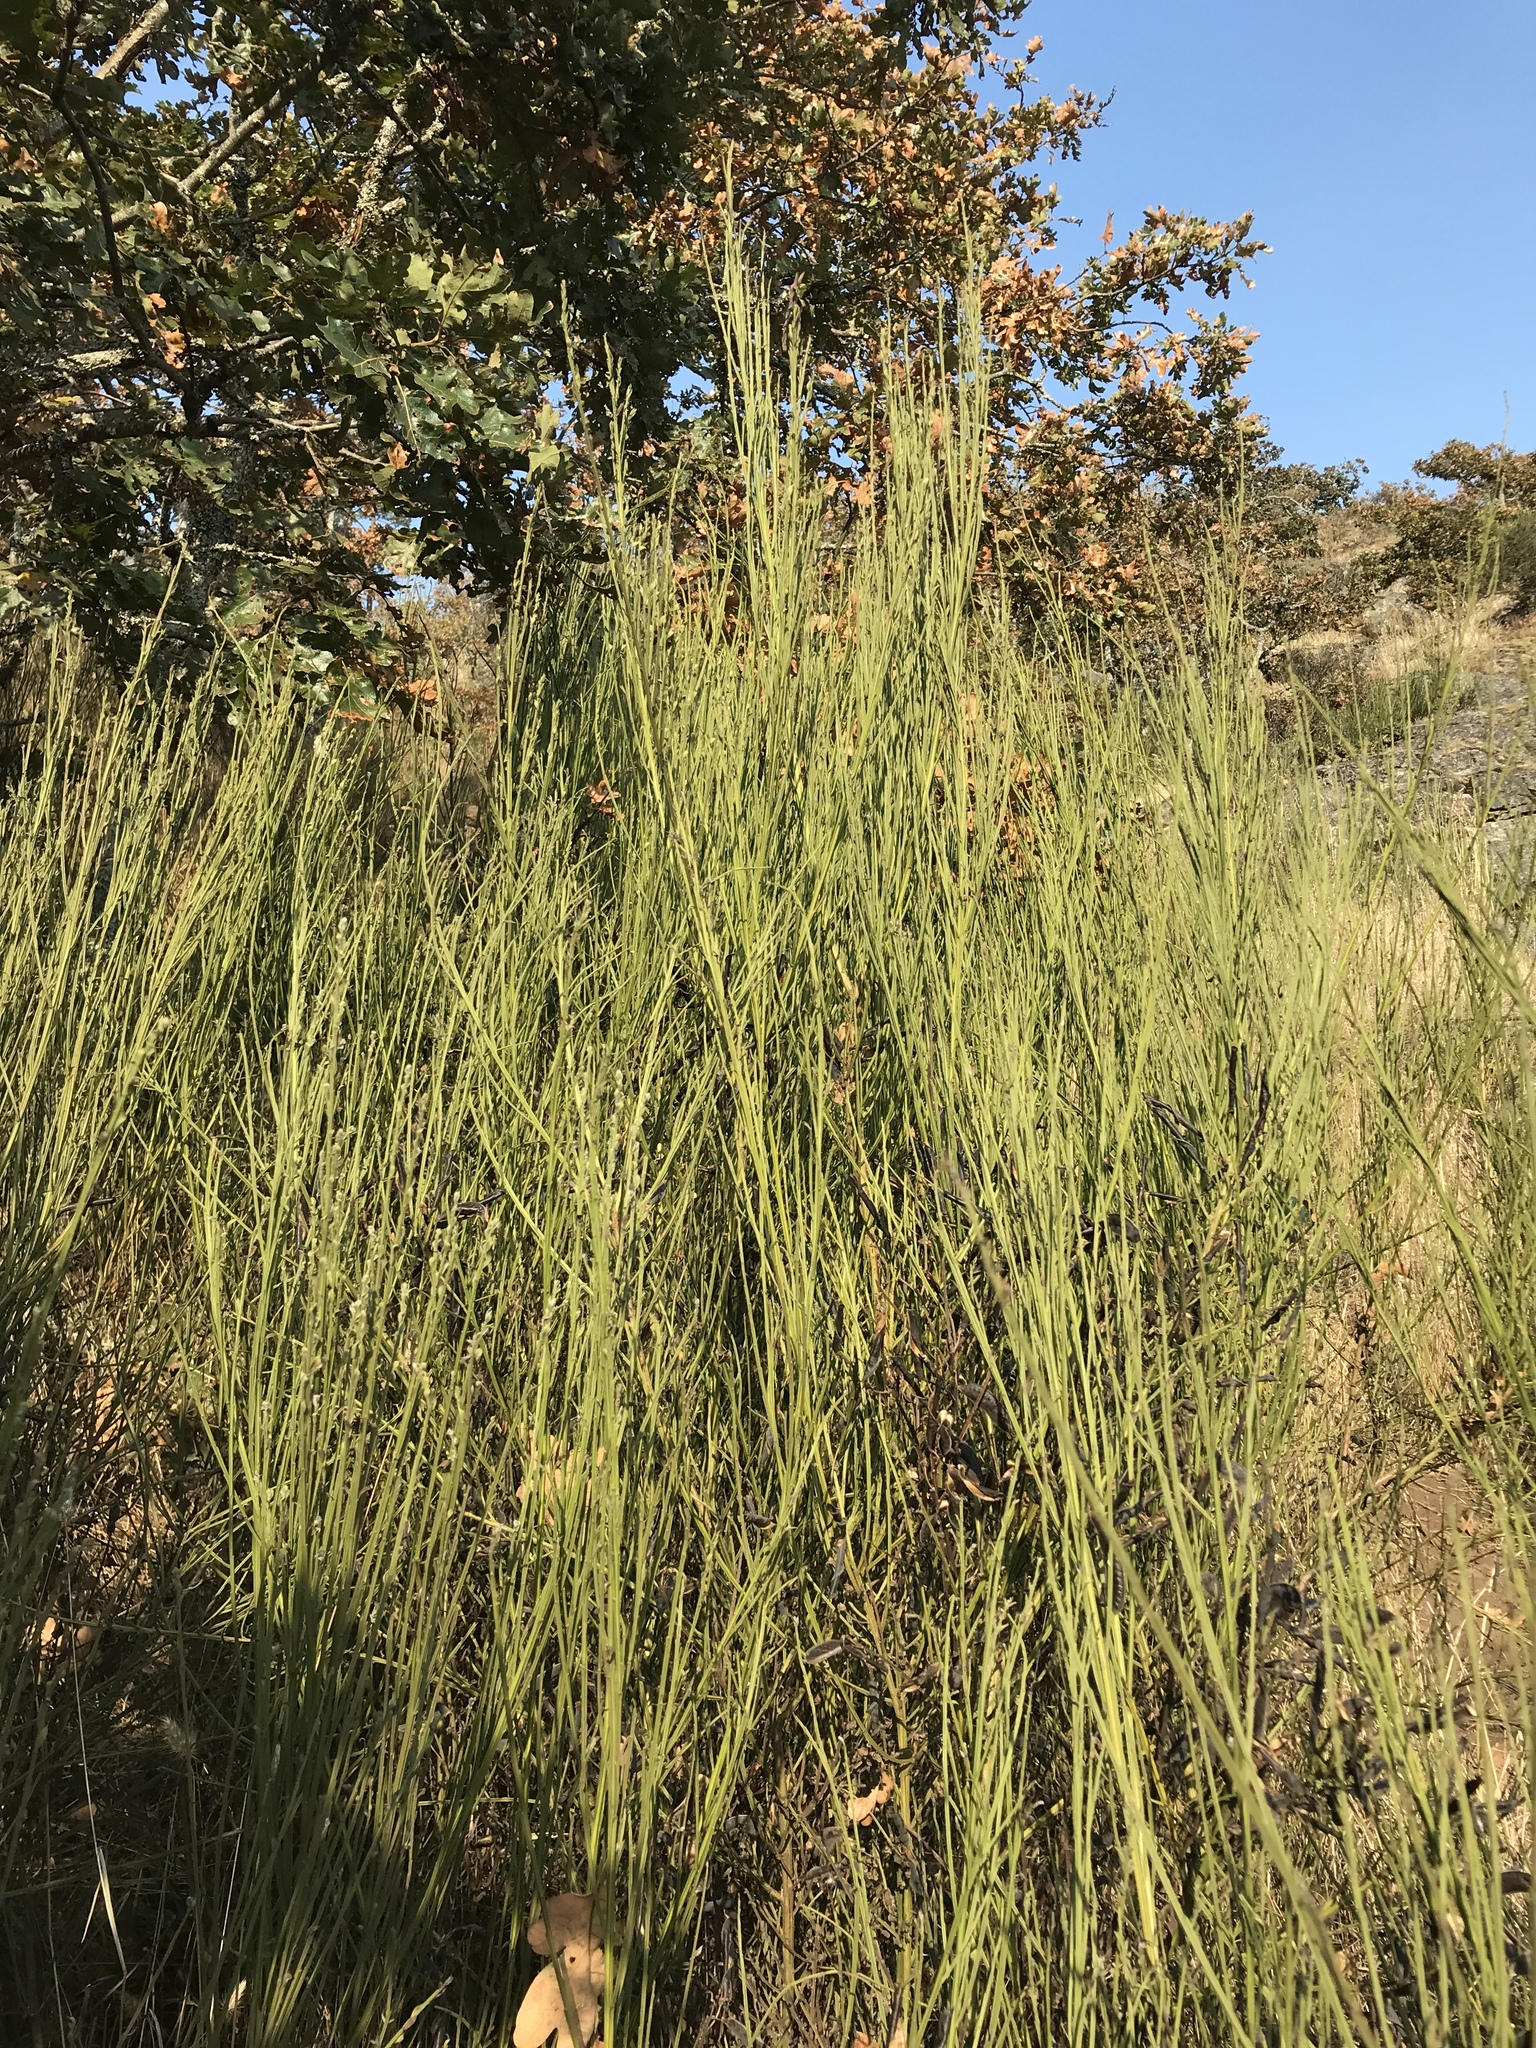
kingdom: Plantae
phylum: Tracheophyta
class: Magnoliopsida
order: Fabales
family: Fabaceae
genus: Cytisus
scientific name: Cytisus scoparius
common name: Scotch broom
